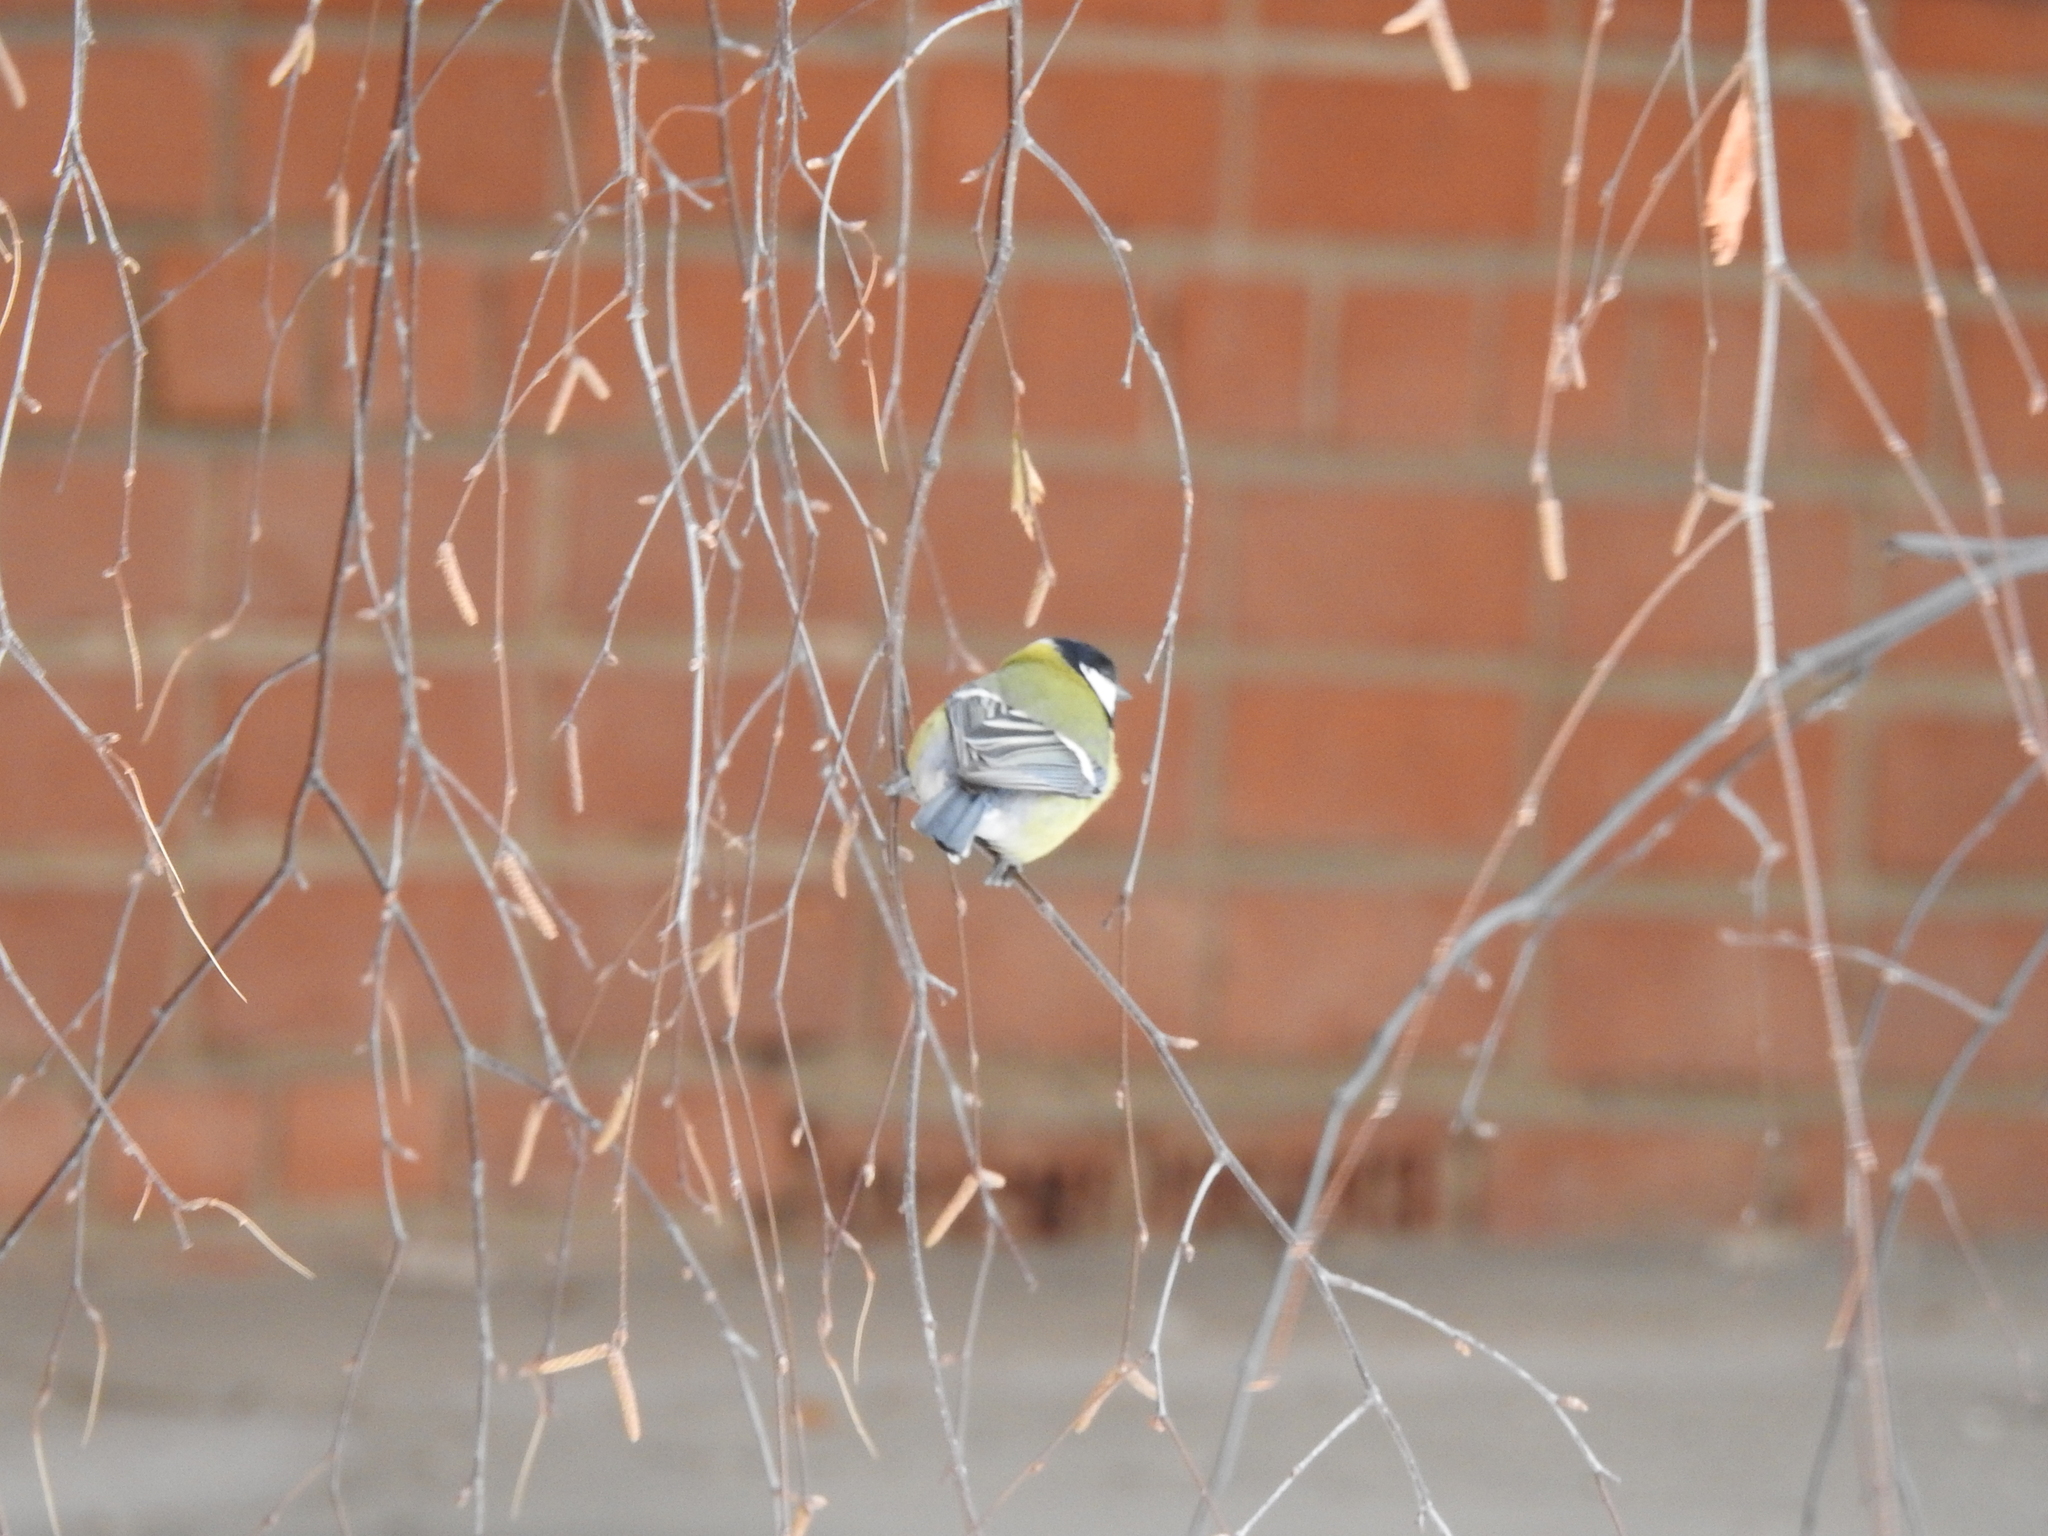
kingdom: Animalia
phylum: Chordata
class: Aves
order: Passeriformes
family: Paridae
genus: Parus
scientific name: Parus major
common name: Great tit
